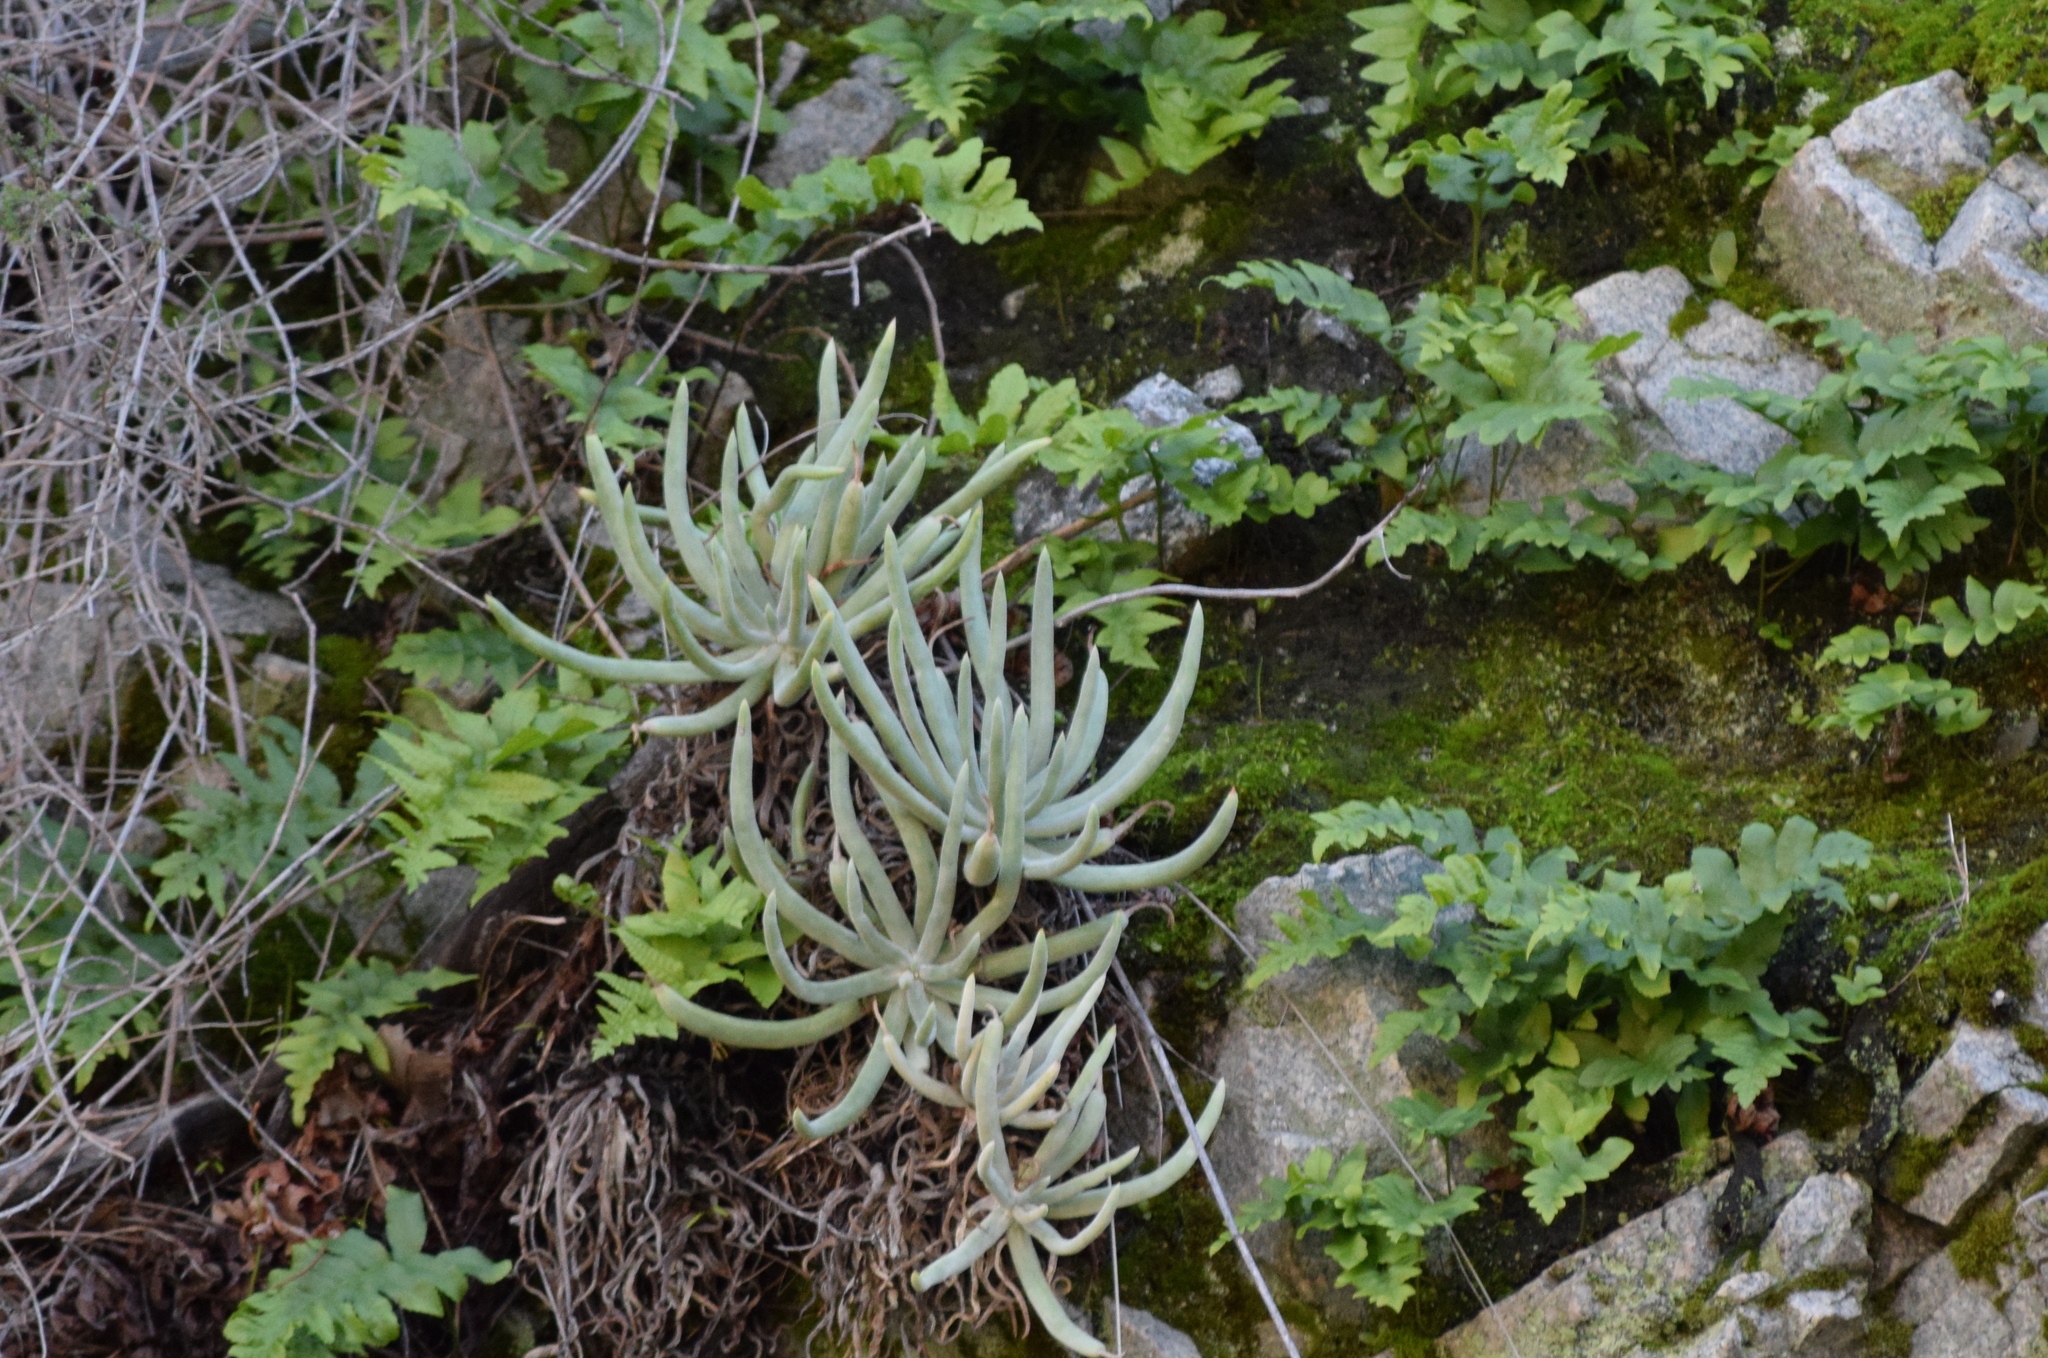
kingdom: Plantae
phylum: Tracheophyta
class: Magnoliopsida
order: Saxifragales
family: Crassulaceae
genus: Dudleya
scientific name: Dudleya densiflora
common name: San gabriel mountains dudleya
